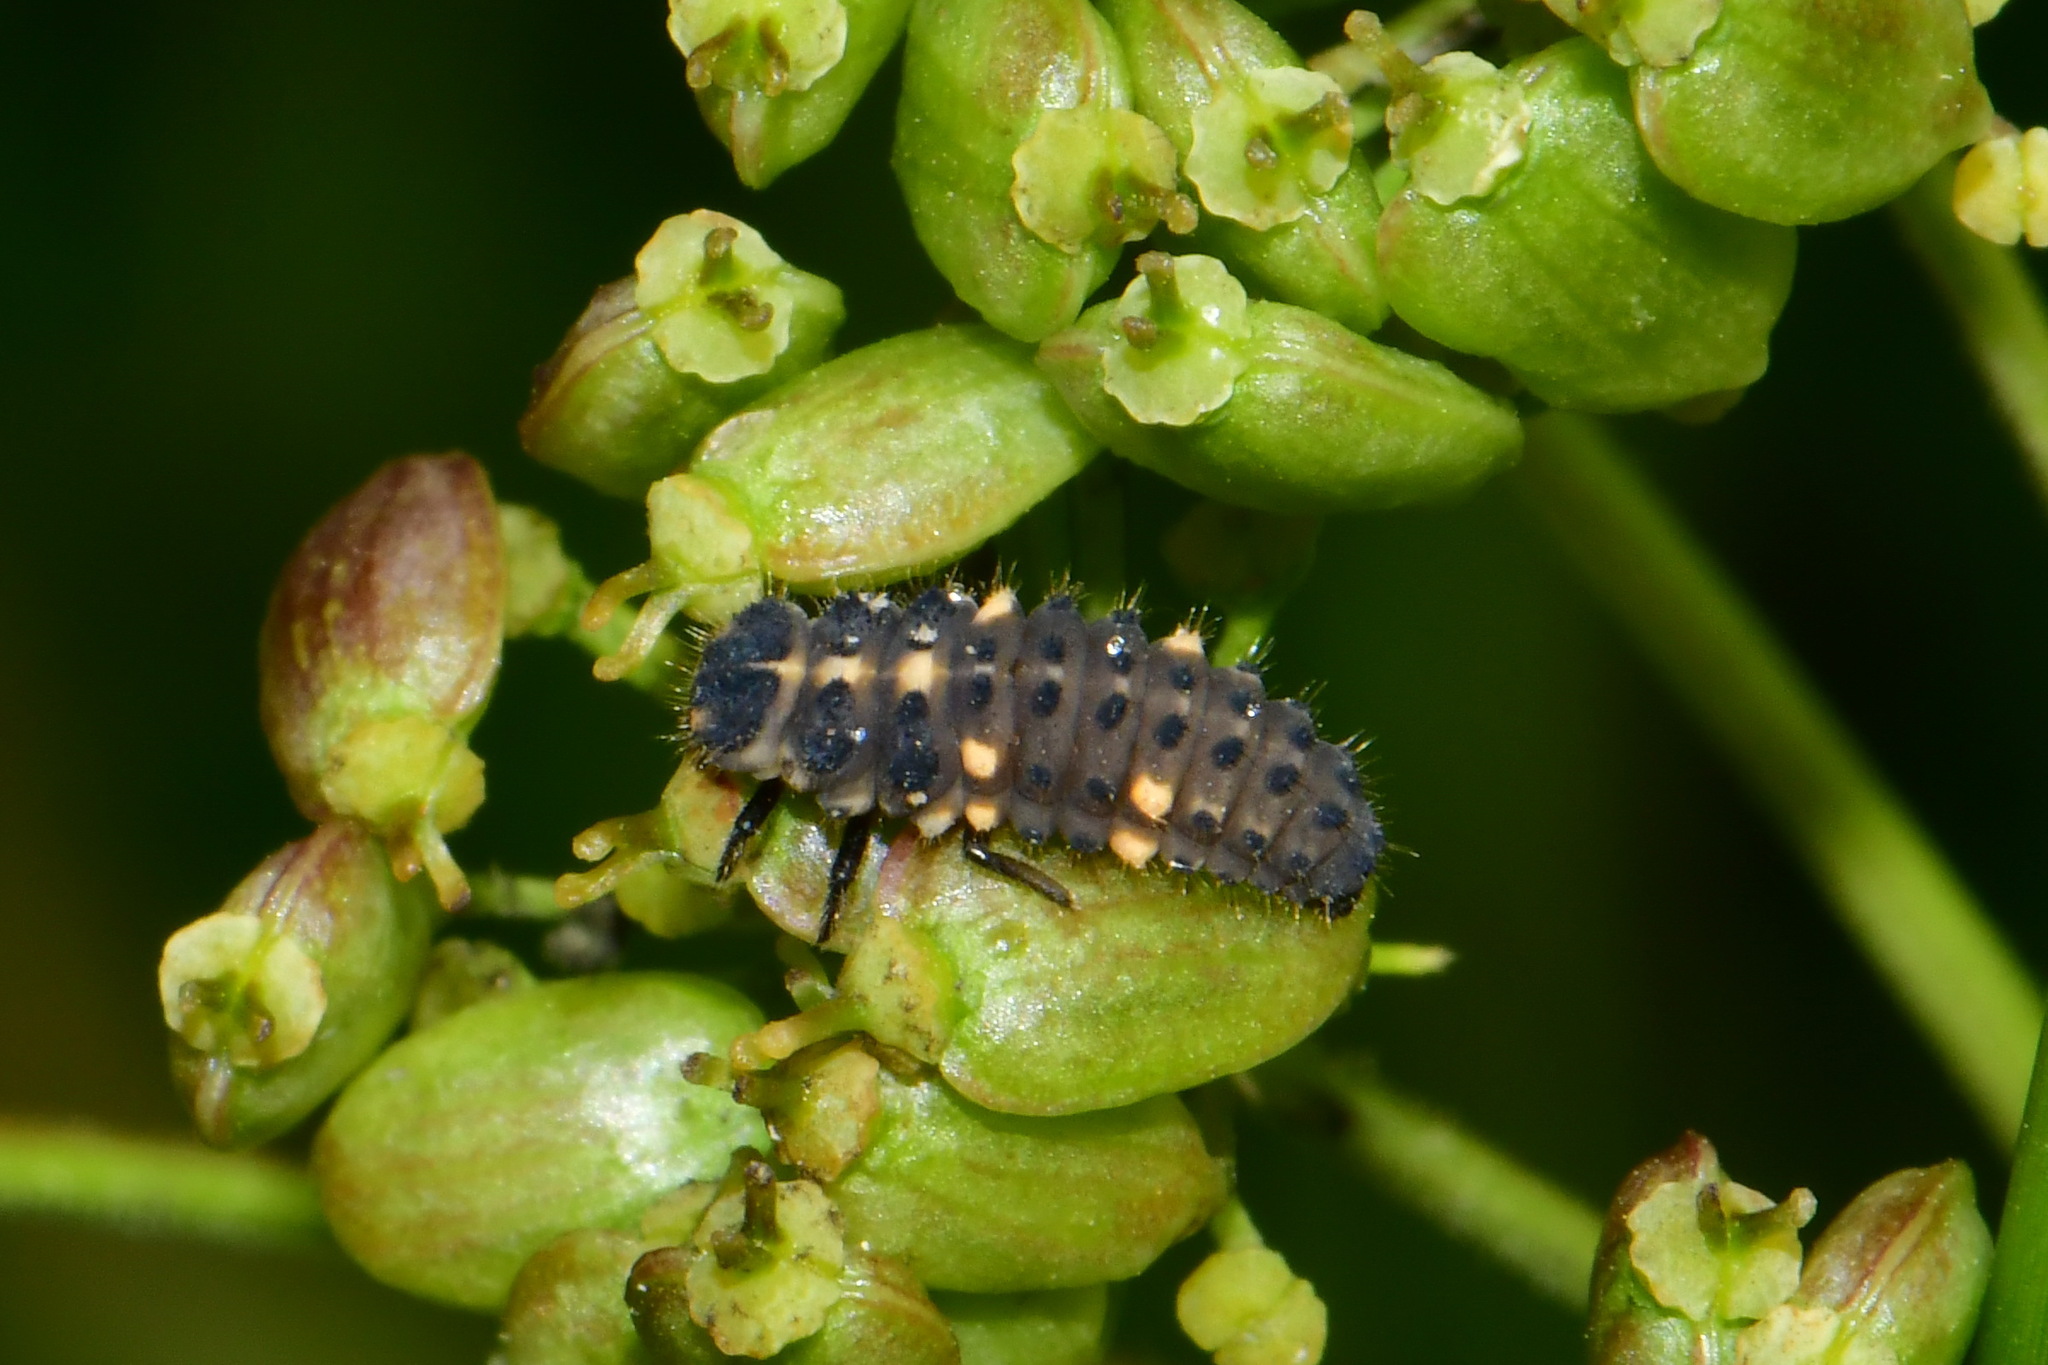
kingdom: Animalia
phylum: Arthropoda
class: Insecta
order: Coleoptera
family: Coccinellidae
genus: Ceratomegilla
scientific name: Ceratomegilla notata
